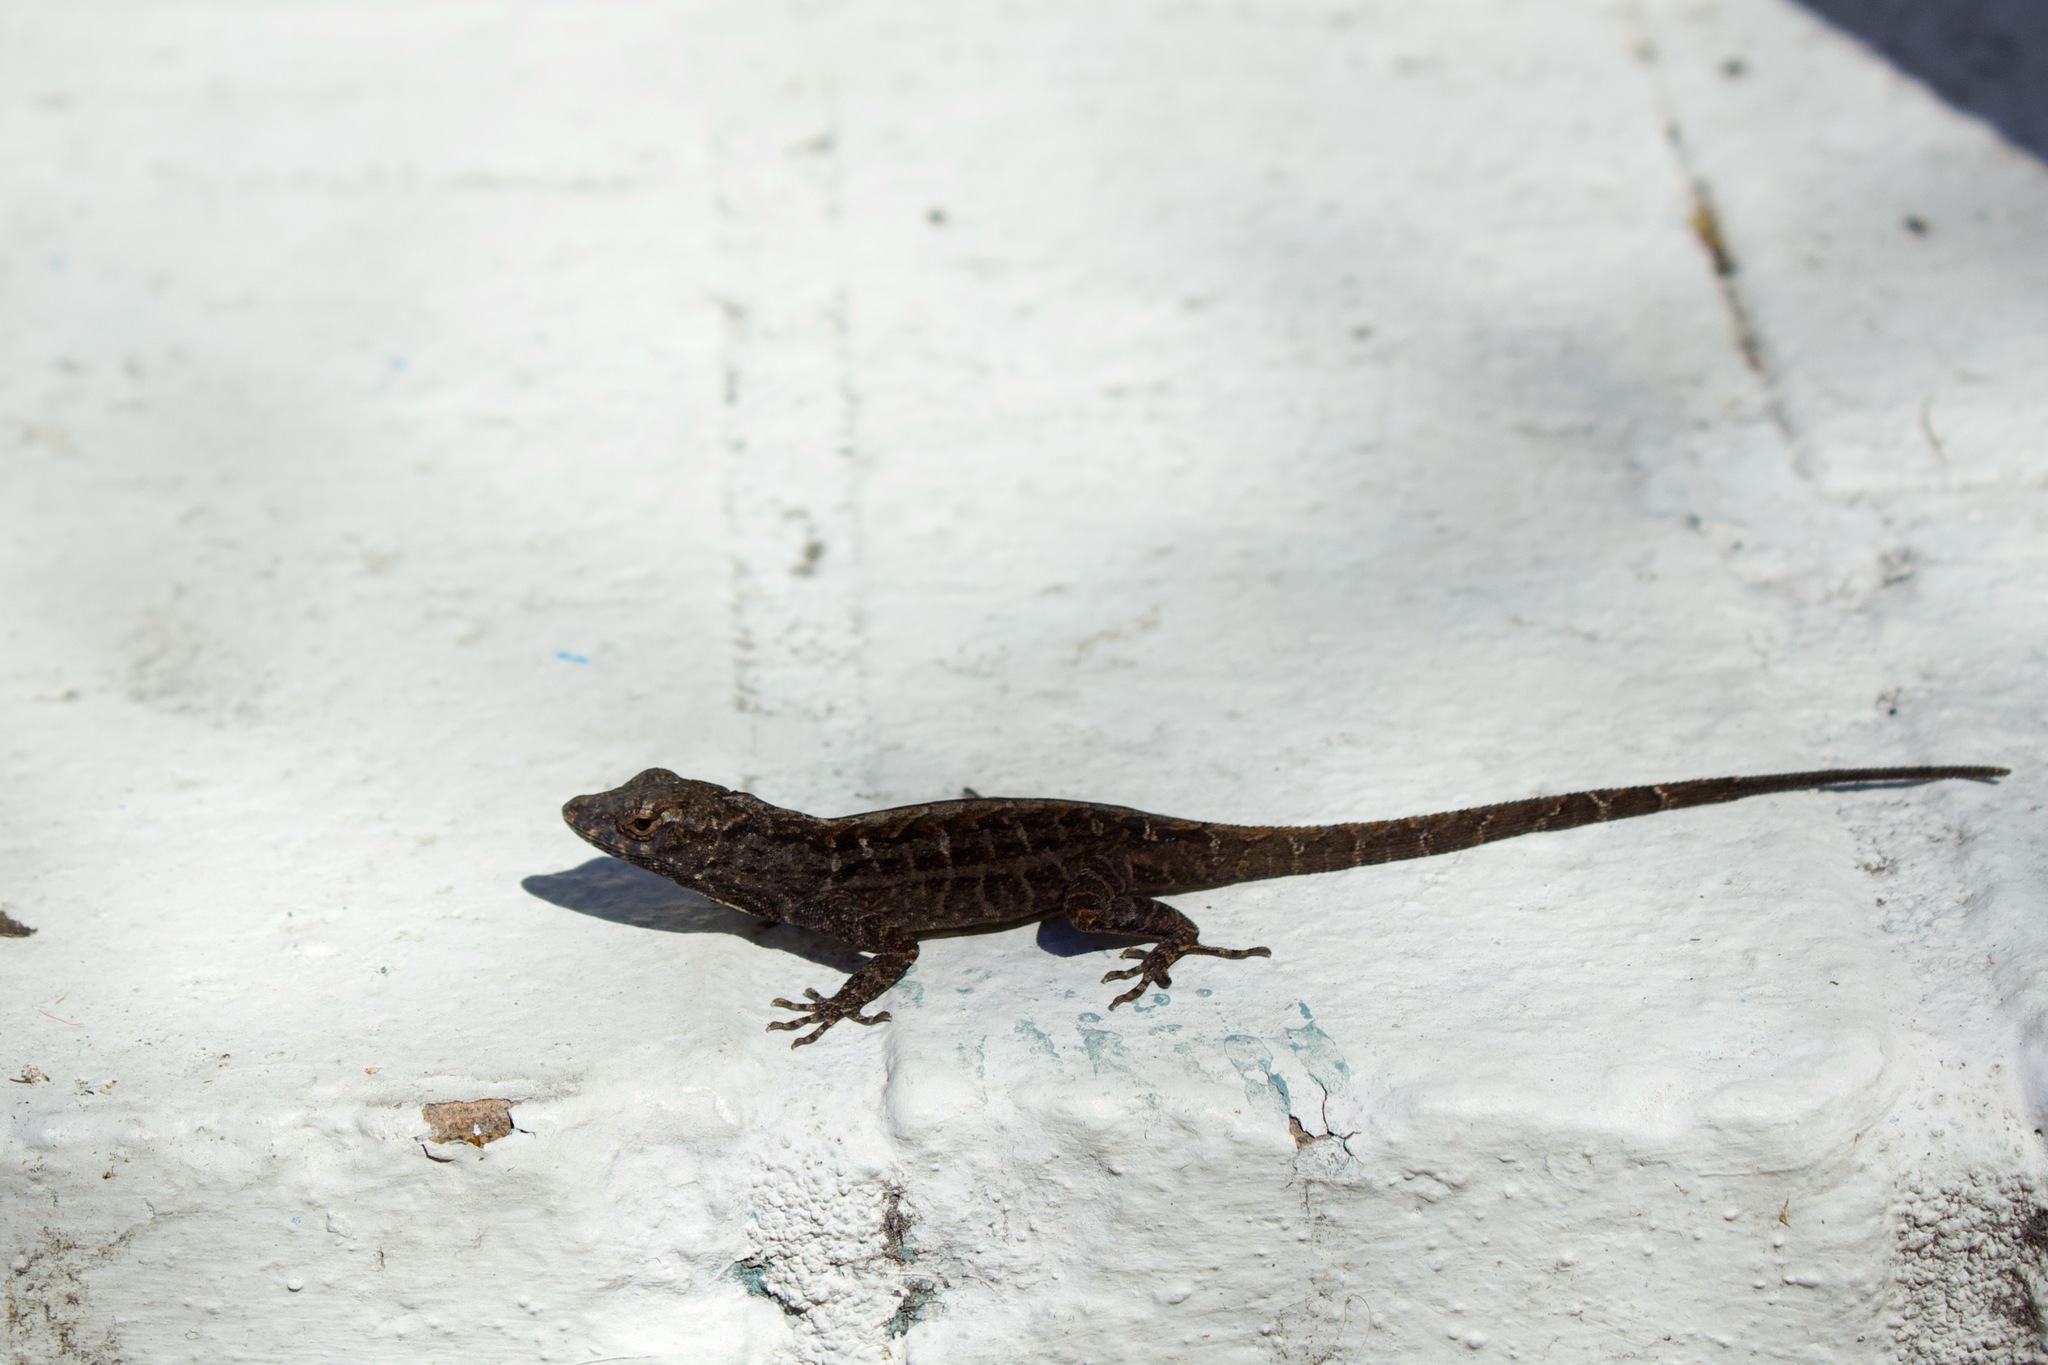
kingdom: Animalia
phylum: Chordata
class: Squamata
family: Dactyloidae
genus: Anolis
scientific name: Anolis sagrei
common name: Brown anole
